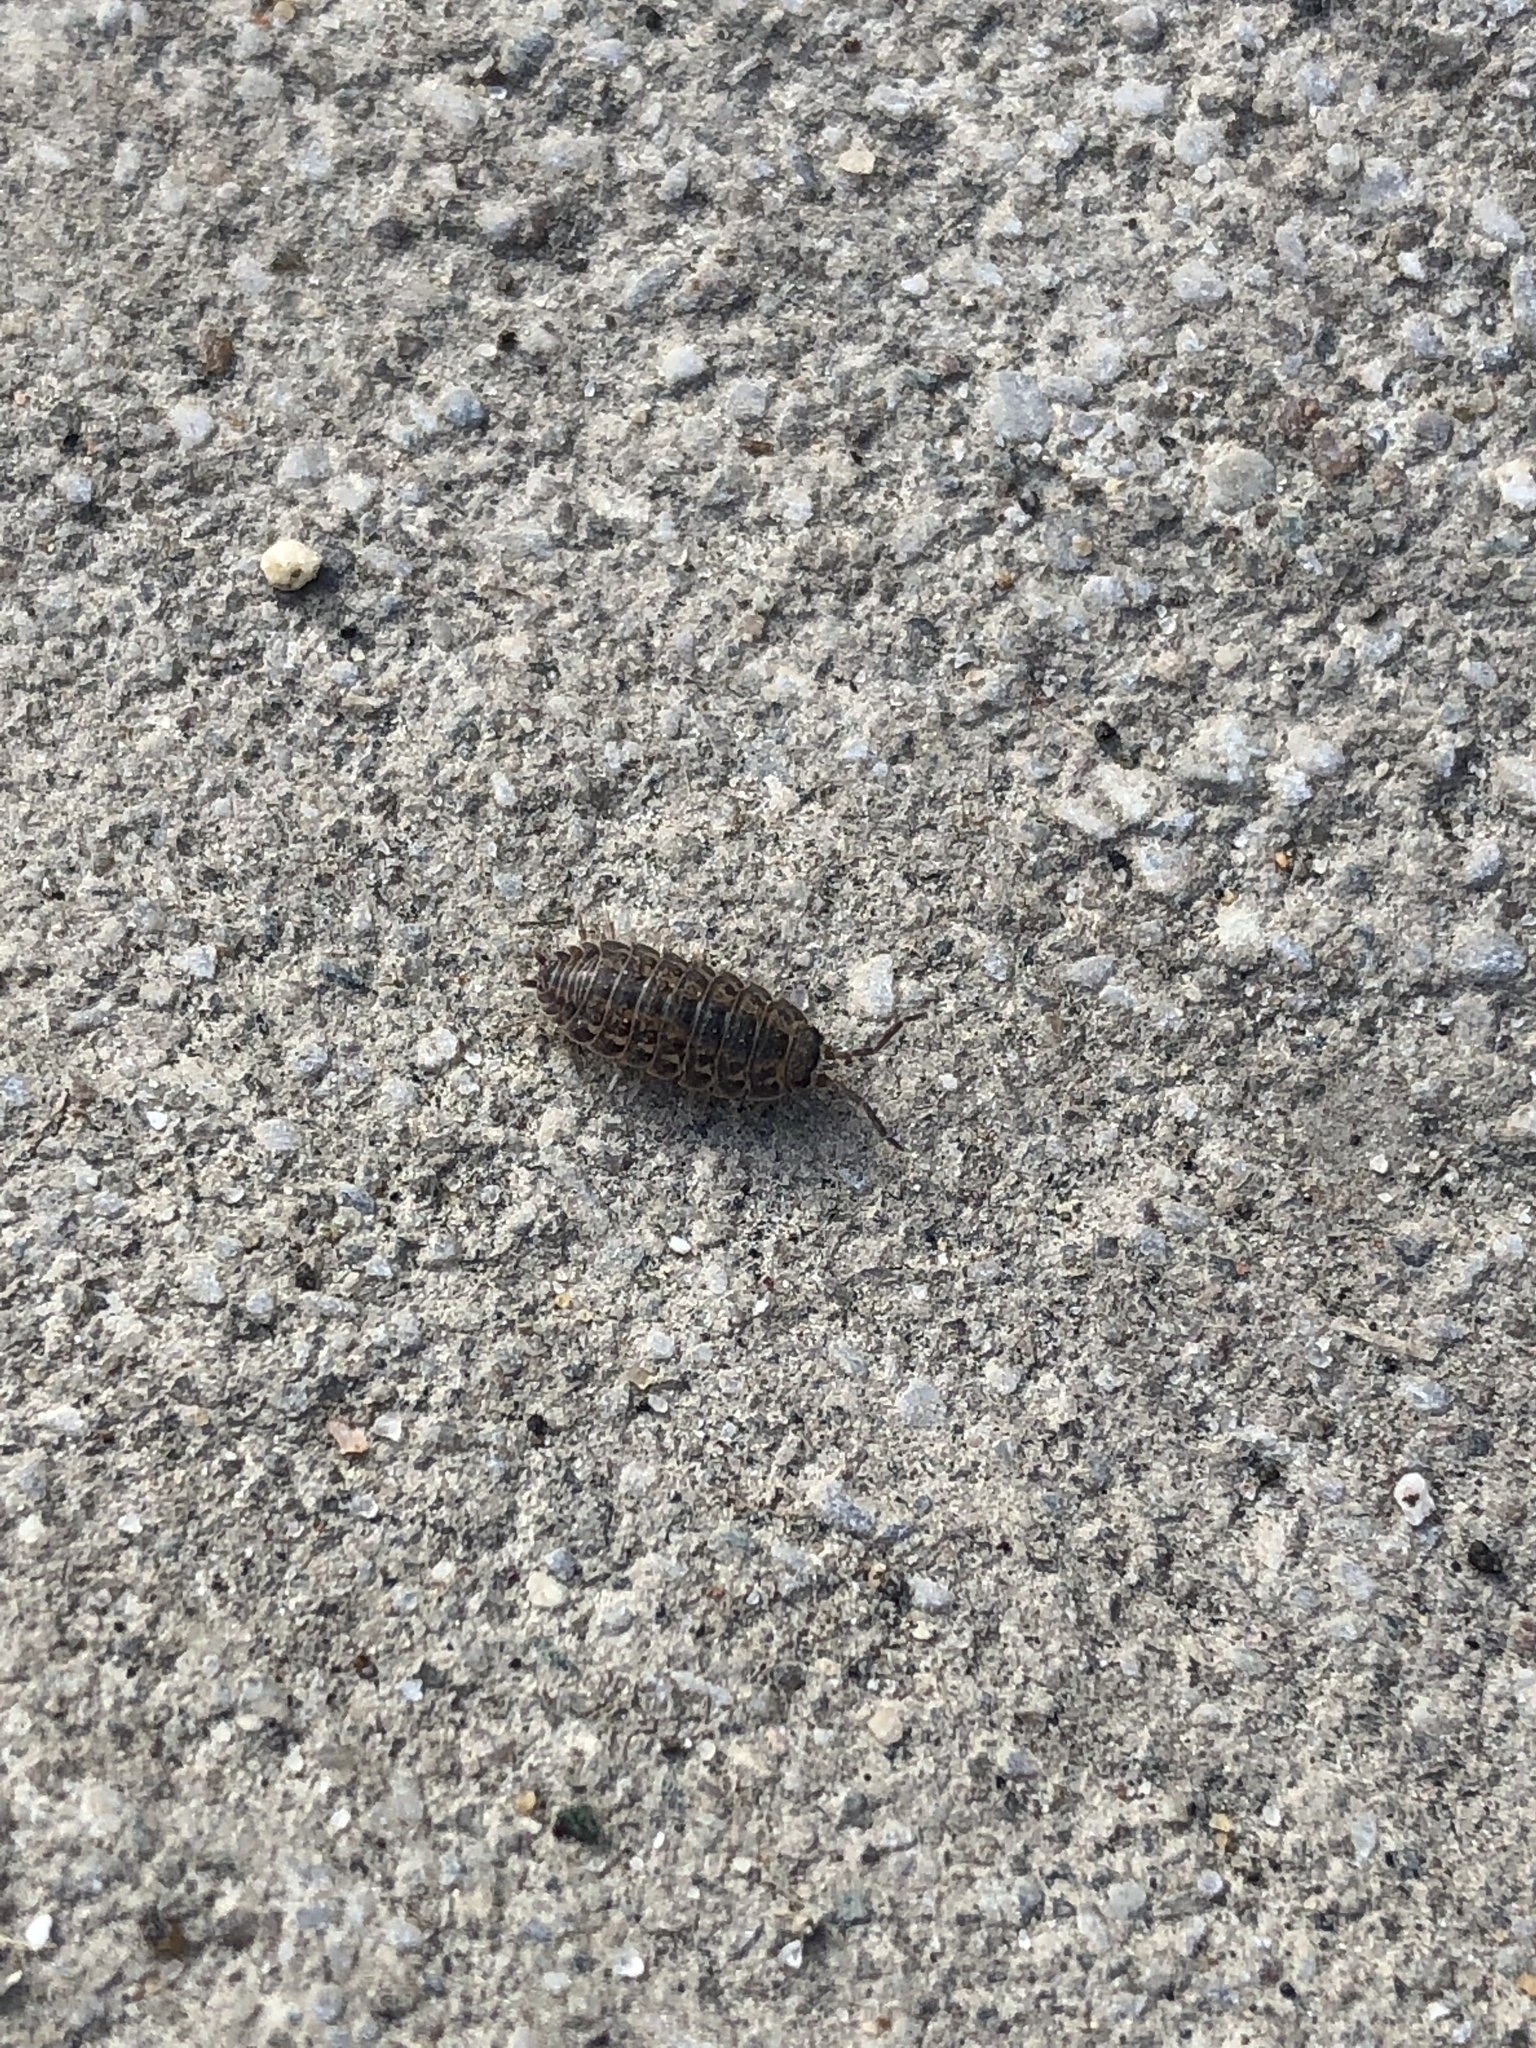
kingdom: Animalia
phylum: Arthropoda
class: Malacostraca
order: Isopoda
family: Trachelipodidae
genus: Trachelipus
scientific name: Trachelipus rathkii
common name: Isopod
